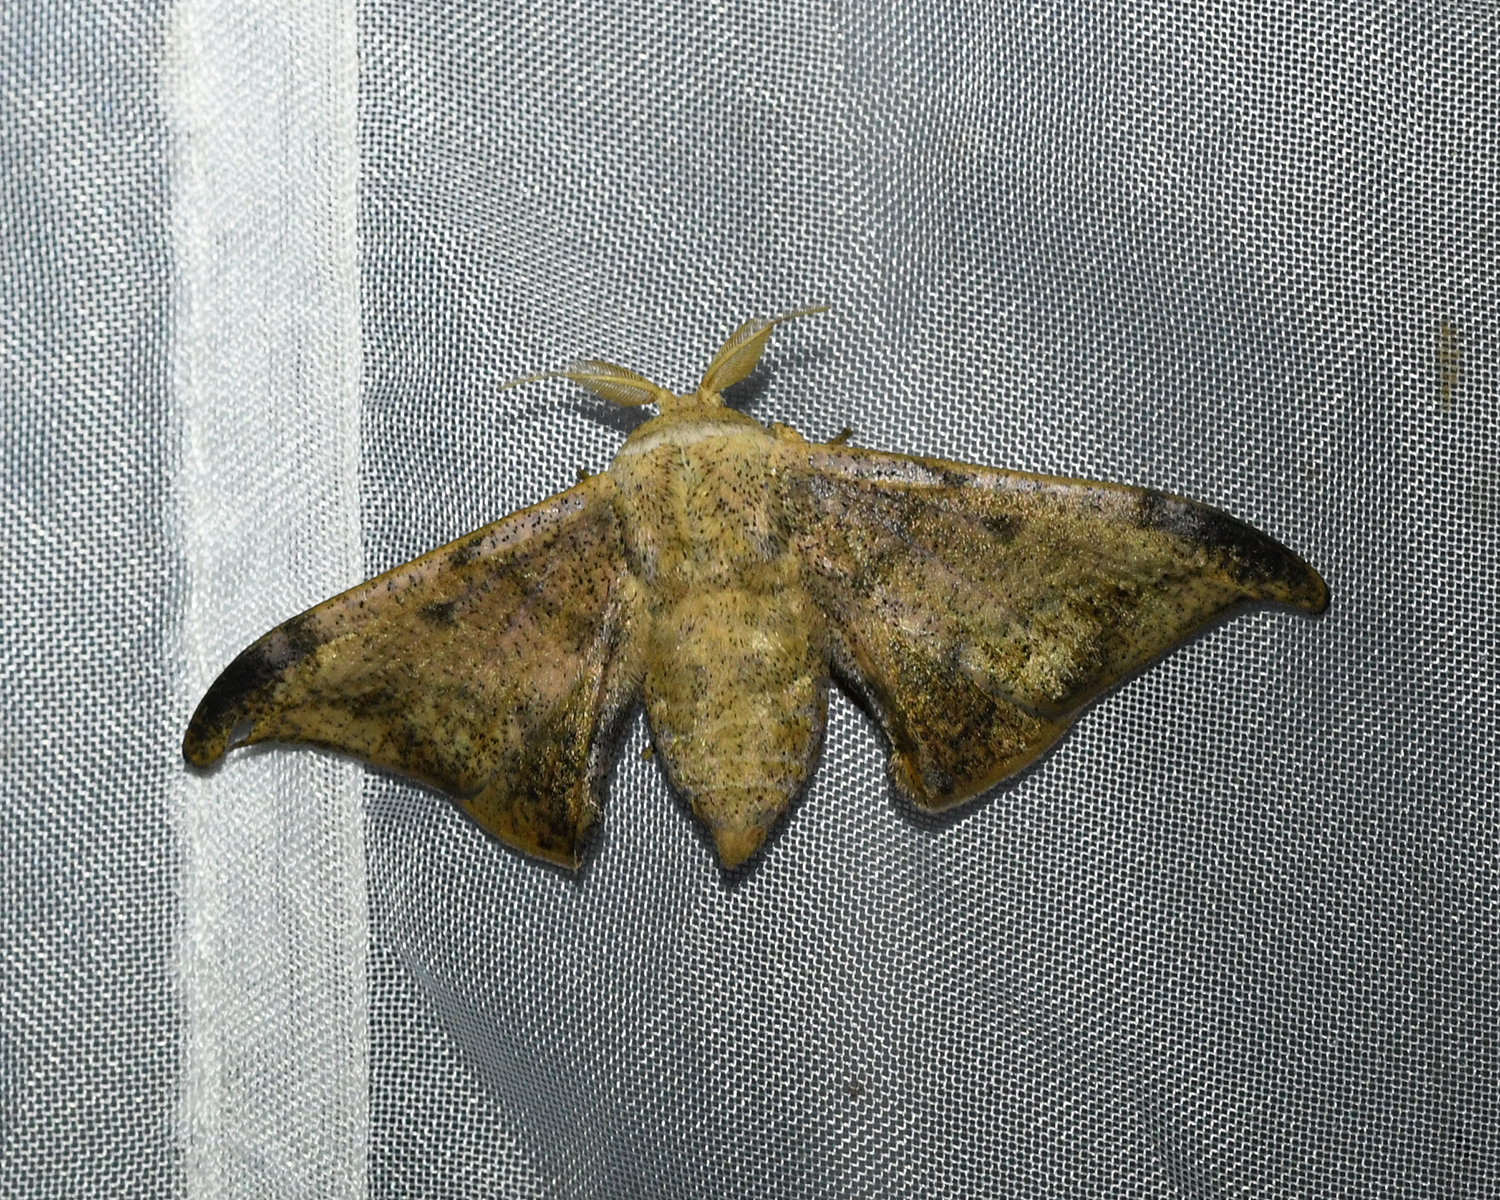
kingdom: Animalia
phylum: Arthropoda
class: Insecta
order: Lepidoptera
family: Mimallonidae
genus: Cicinnus
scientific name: Cicinnus incerta
